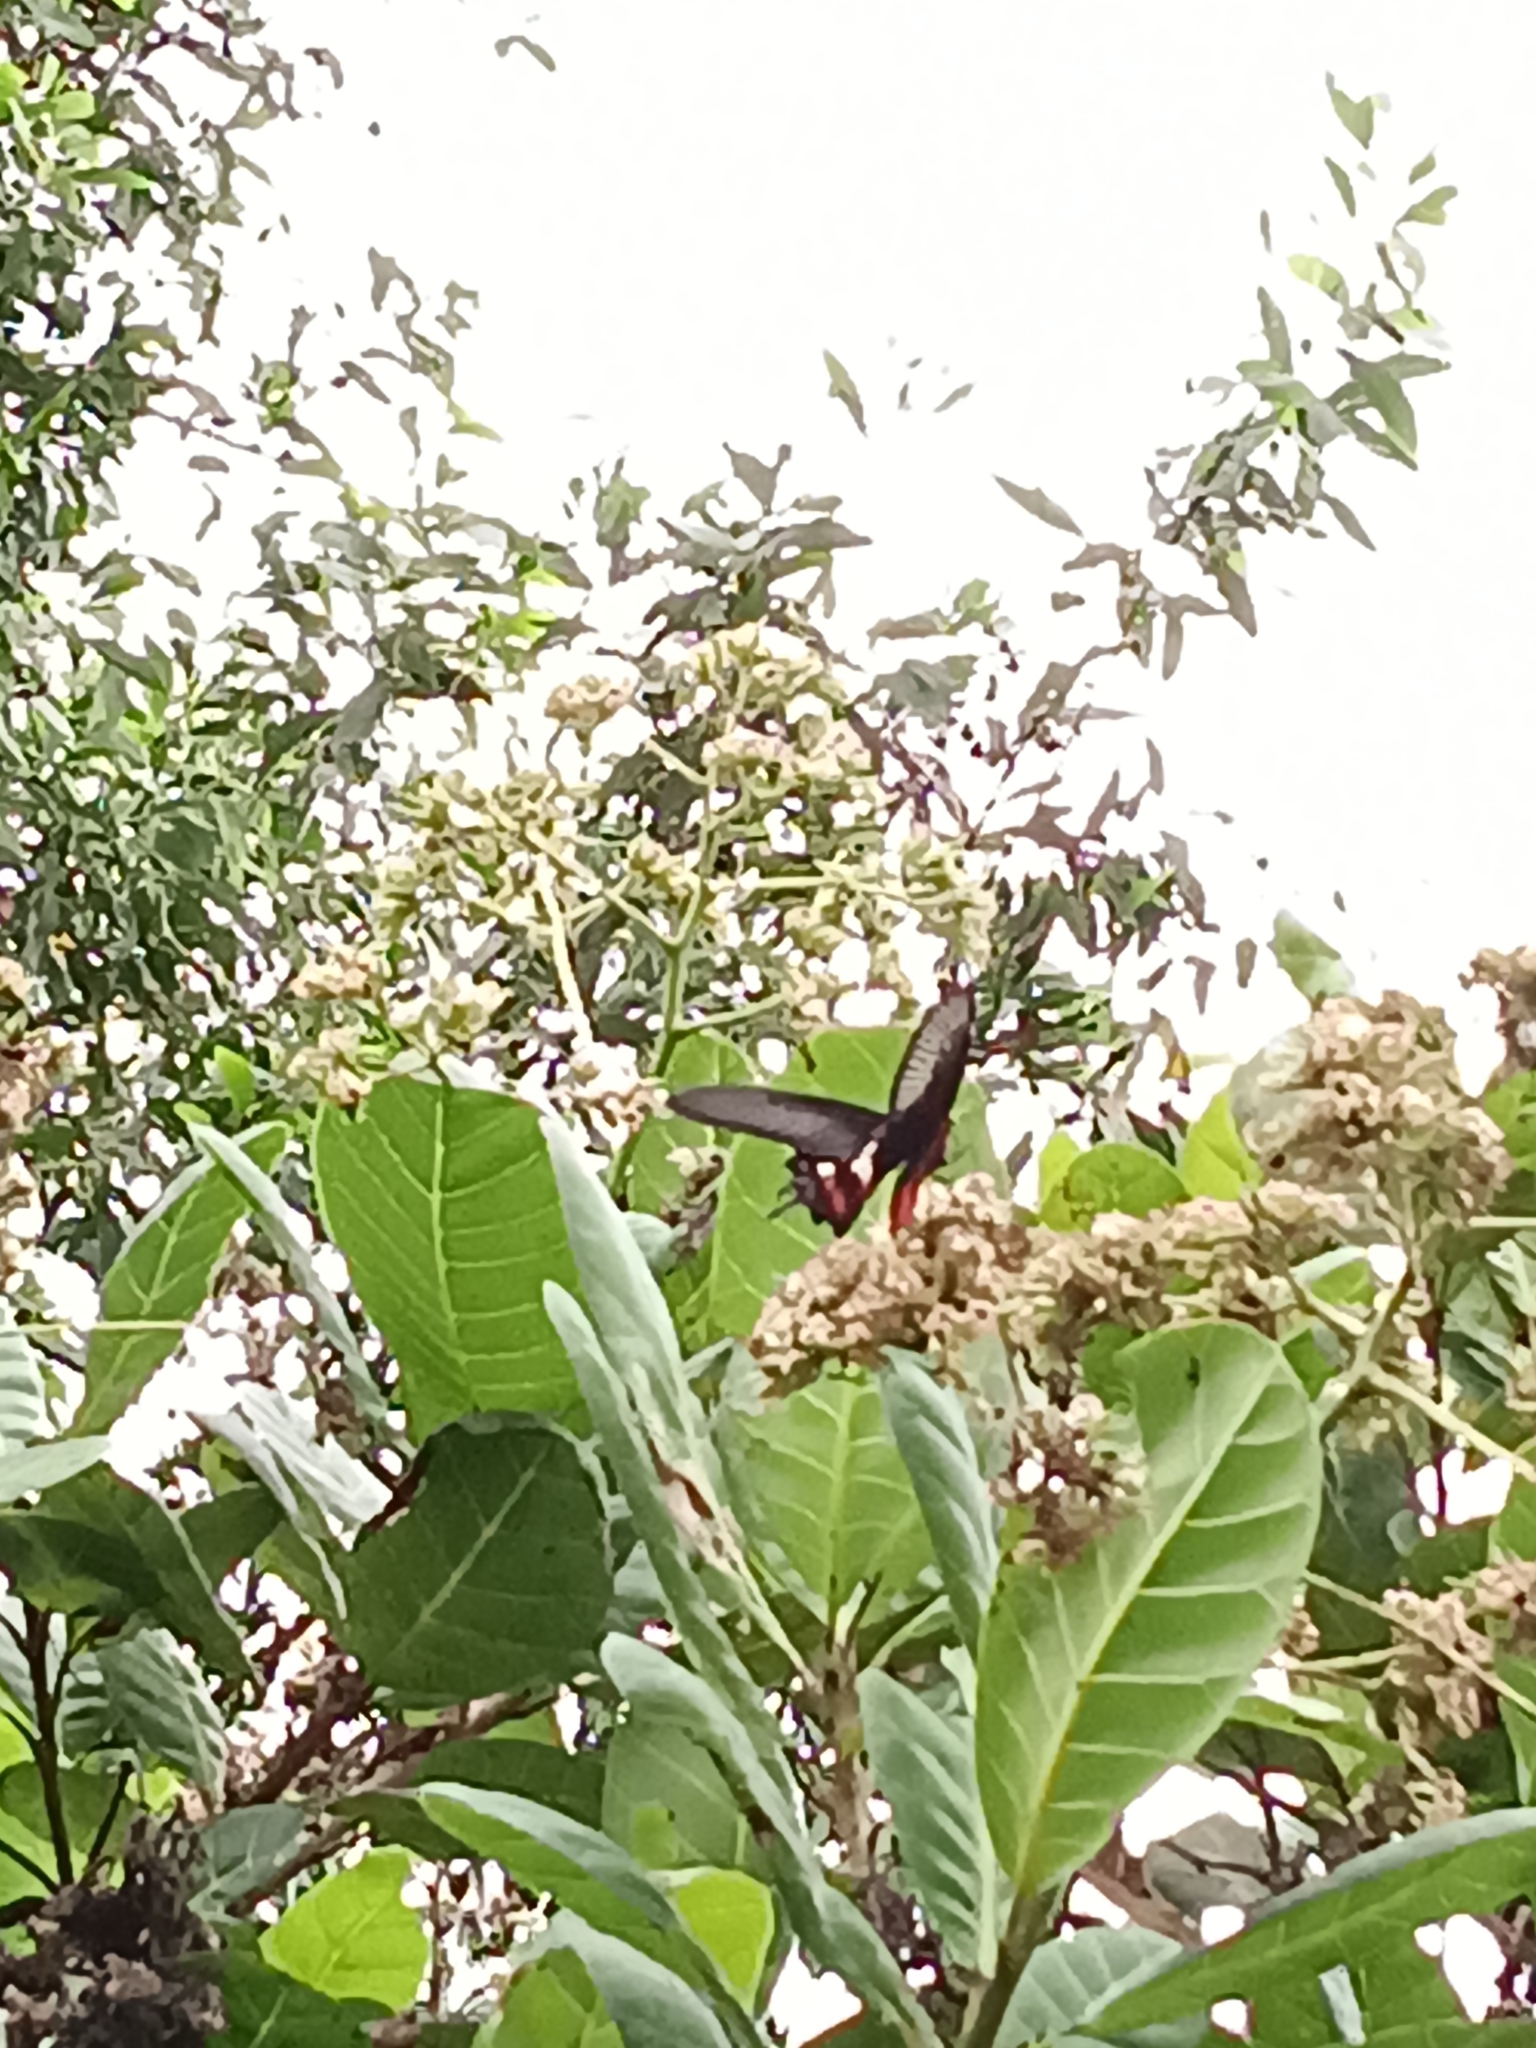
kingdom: Animalia
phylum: Arthropoda
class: Insecta
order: Lepidoptera
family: Papilionidae
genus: Pachliopta
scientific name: Pachliopta aristolochiae
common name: Common rose
